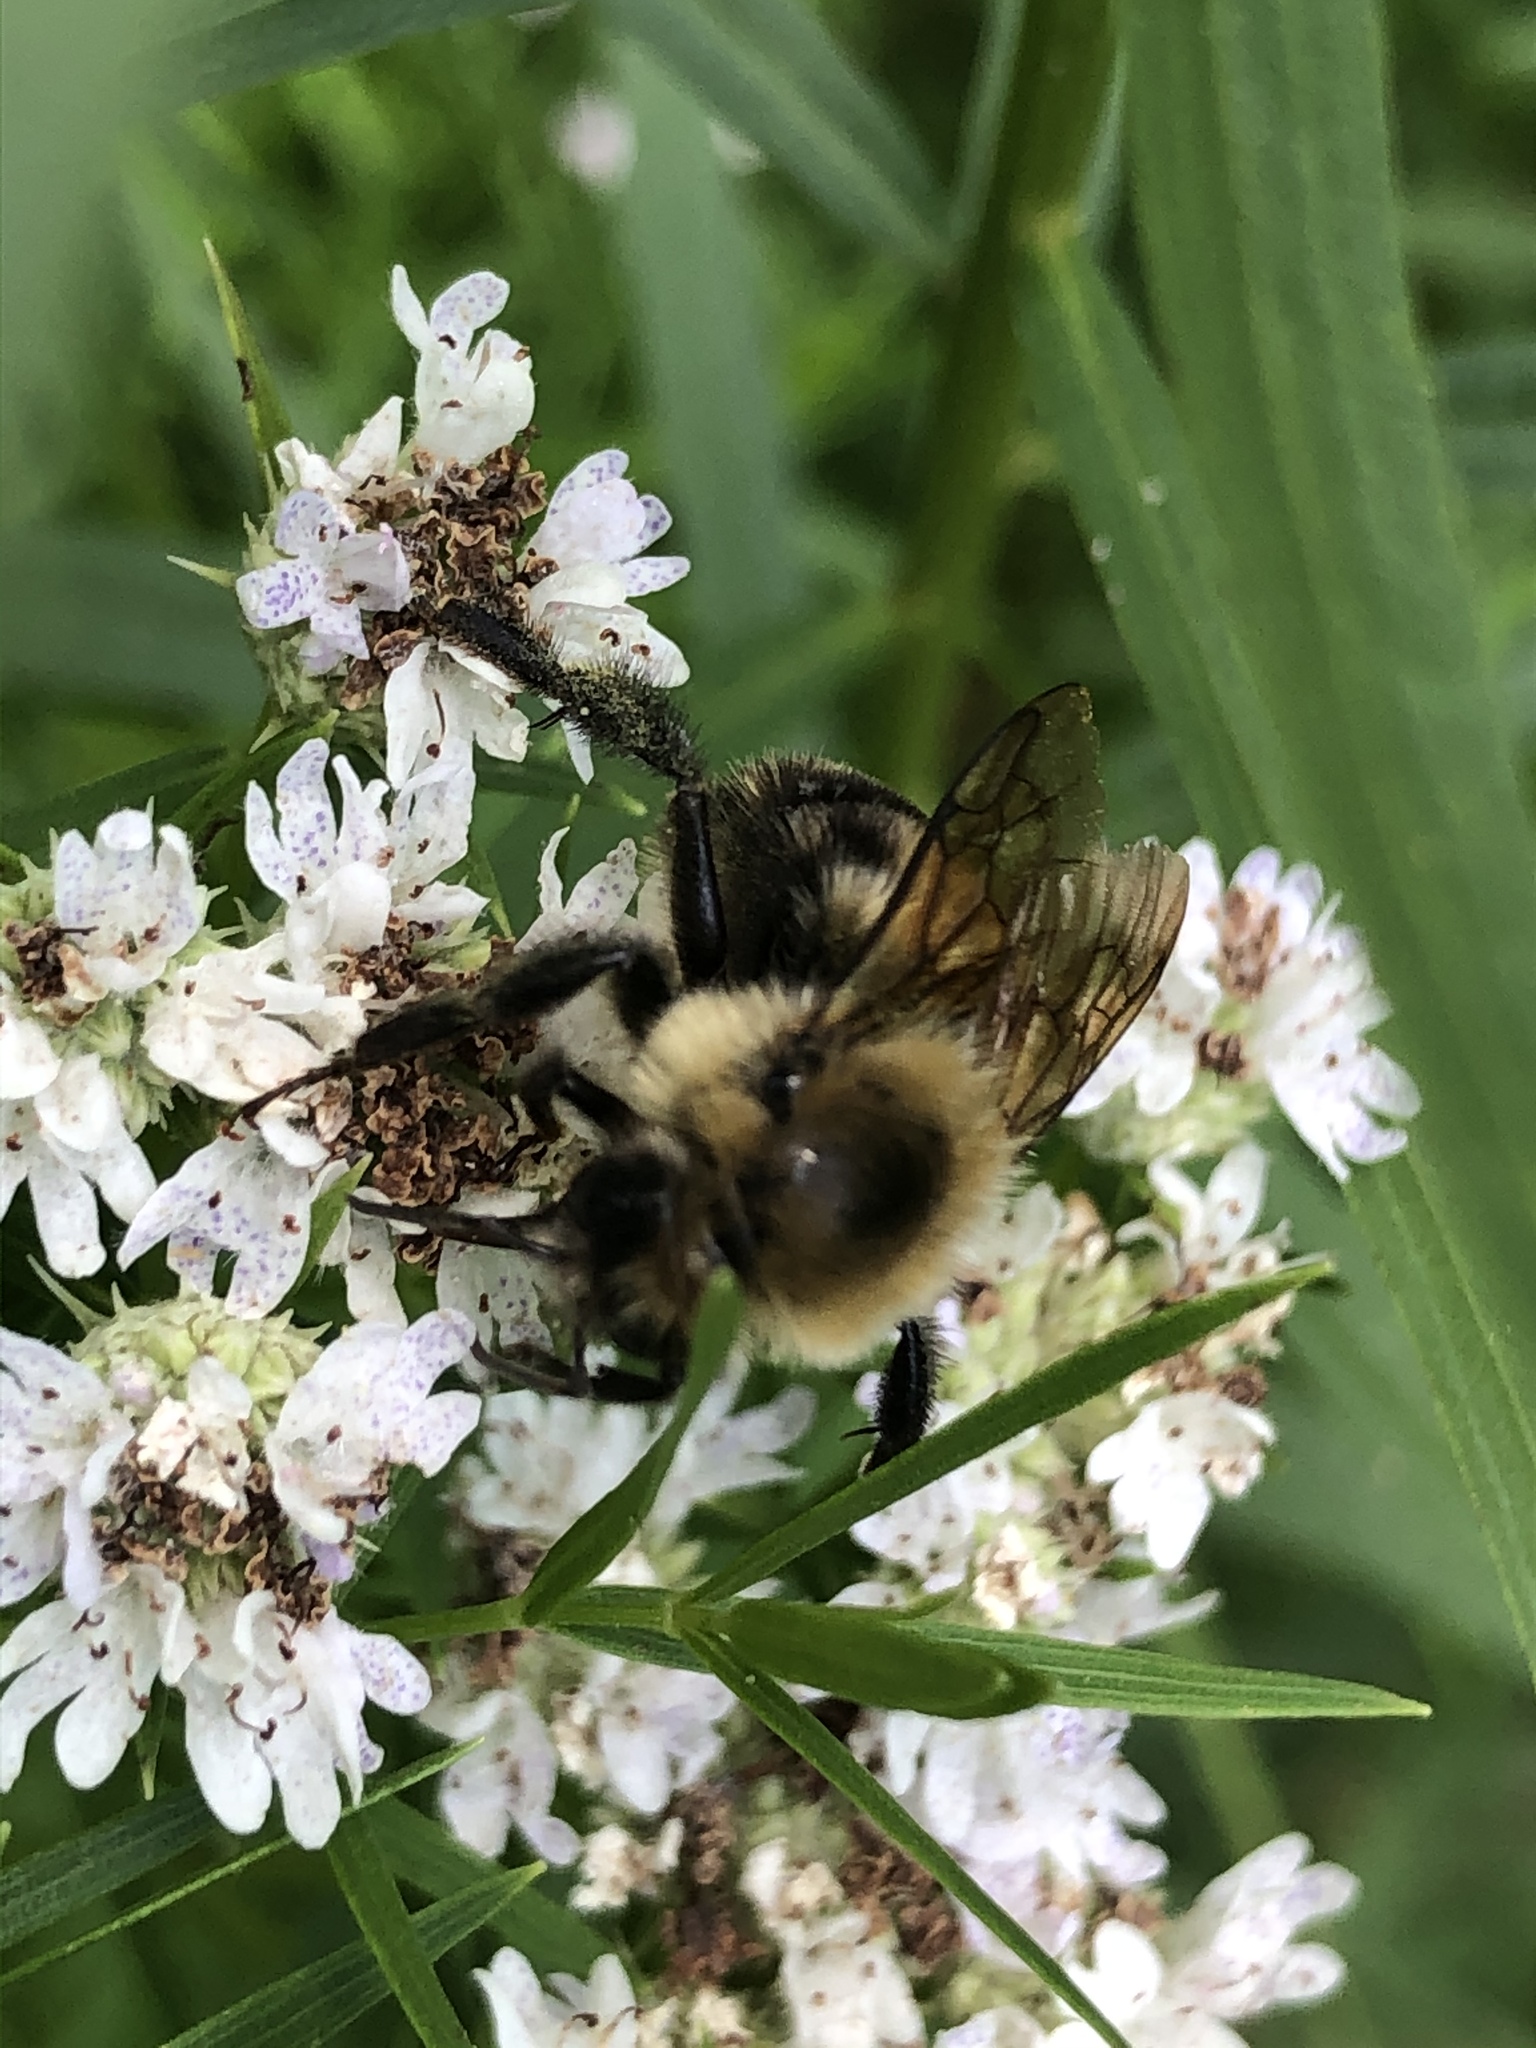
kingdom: Animalia
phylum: Arthropoda
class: Insecta
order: Hymenoptera
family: Apidae
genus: Bombus
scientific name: Bombus bimaculatus
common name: Two-spotted bumble bee
